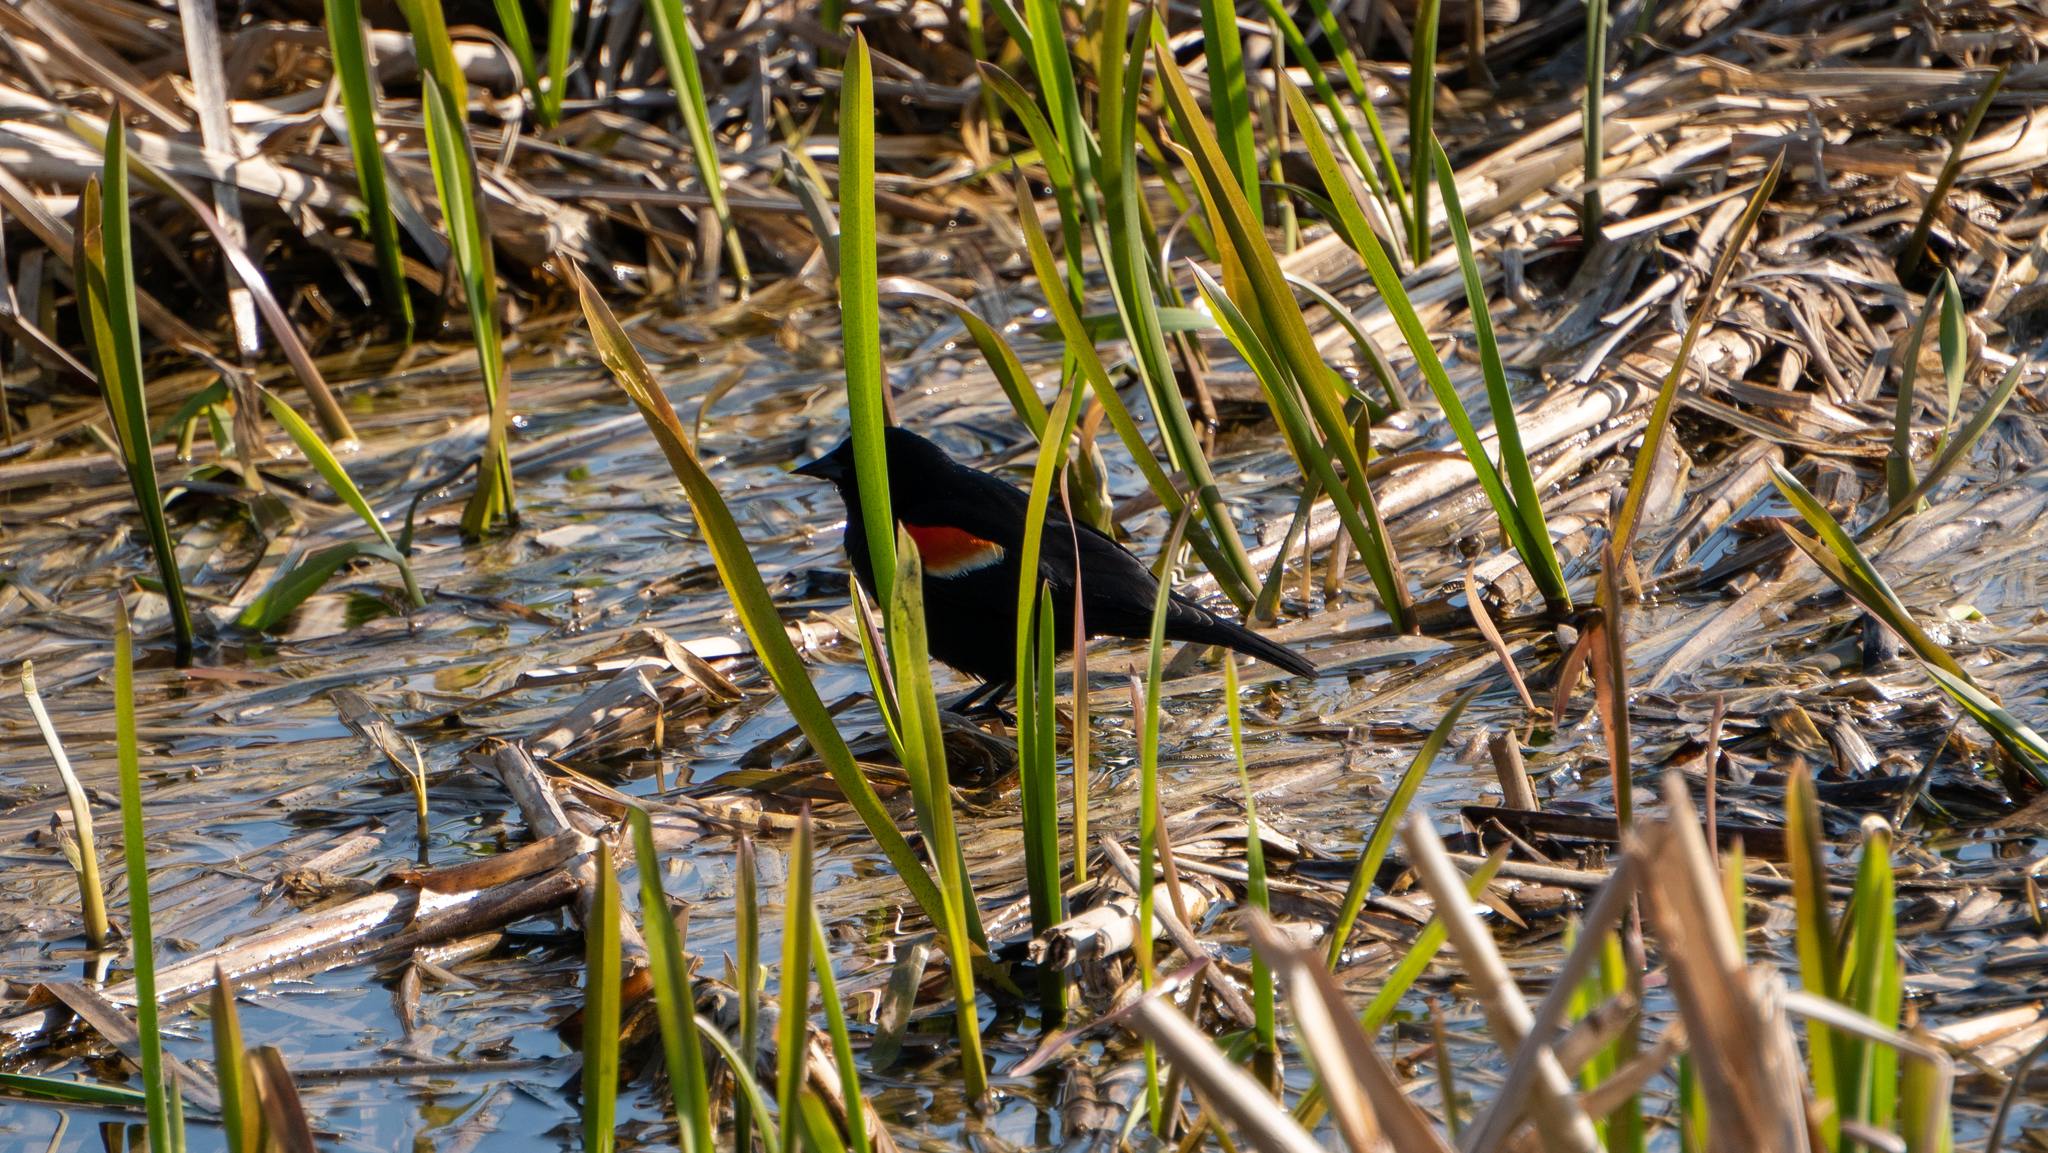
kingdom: Animalia
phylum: Chordata
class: Aves
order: Passeriformes
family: Icteridae
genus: Agelaius
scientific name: Agelaius phoeniceus
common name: Red-winged blackbird
